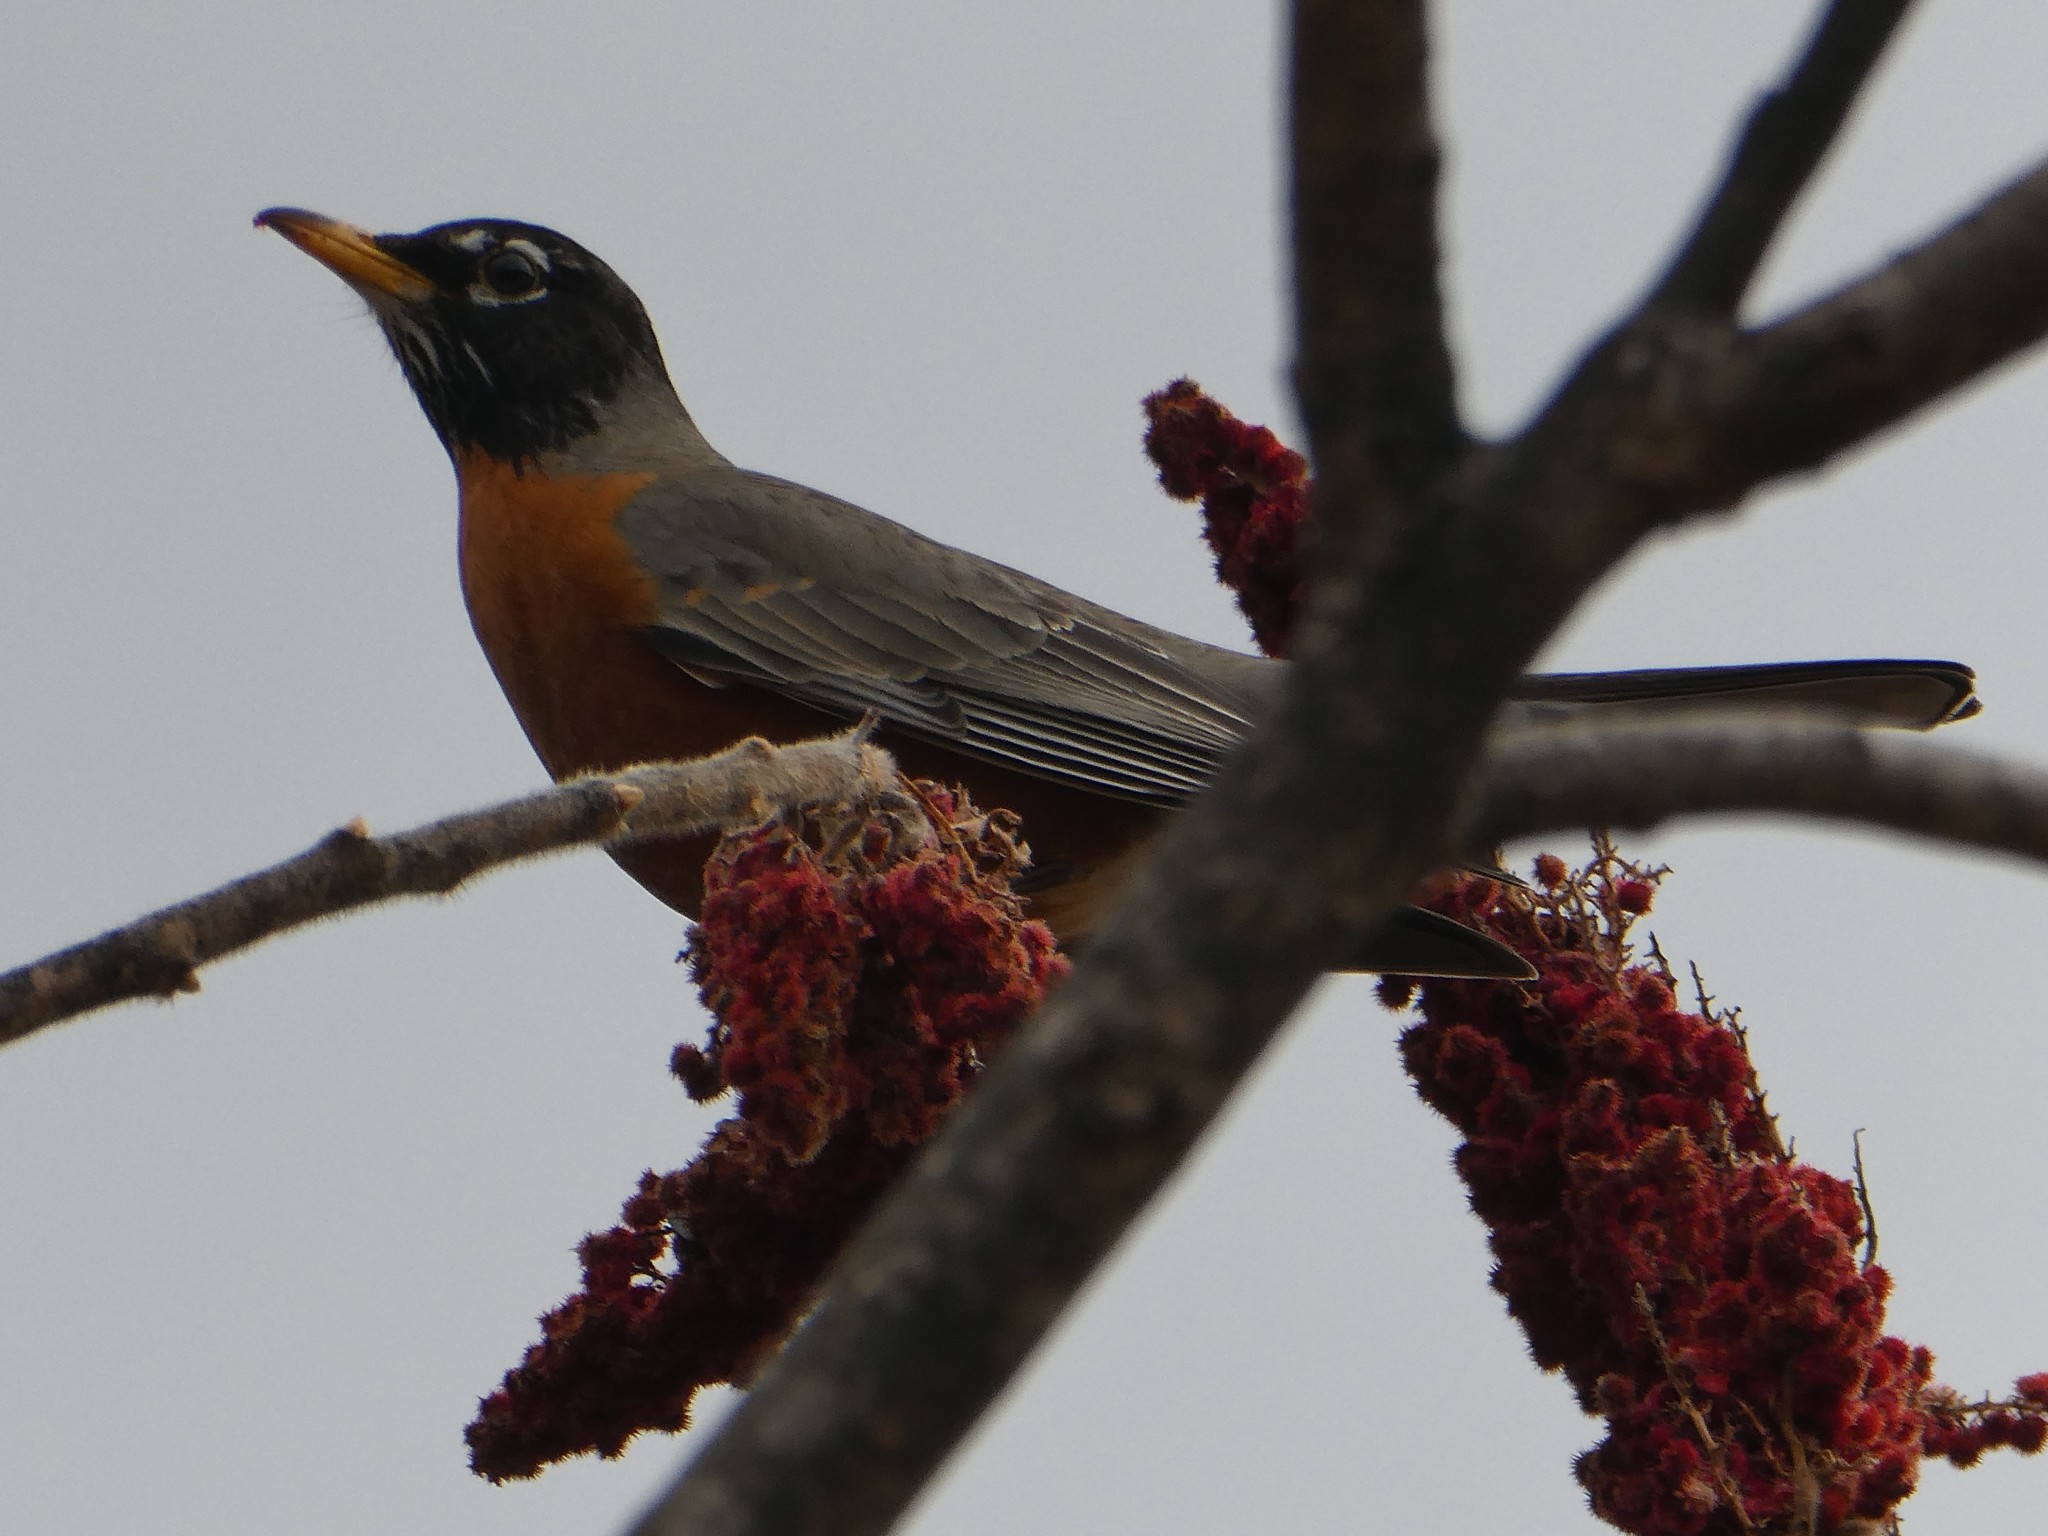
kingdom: Animalia
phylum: Chordata
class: Aves
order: Passeriformes
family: Turdidae
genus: Turdus
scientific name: Turdus migratorius
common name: American robin
